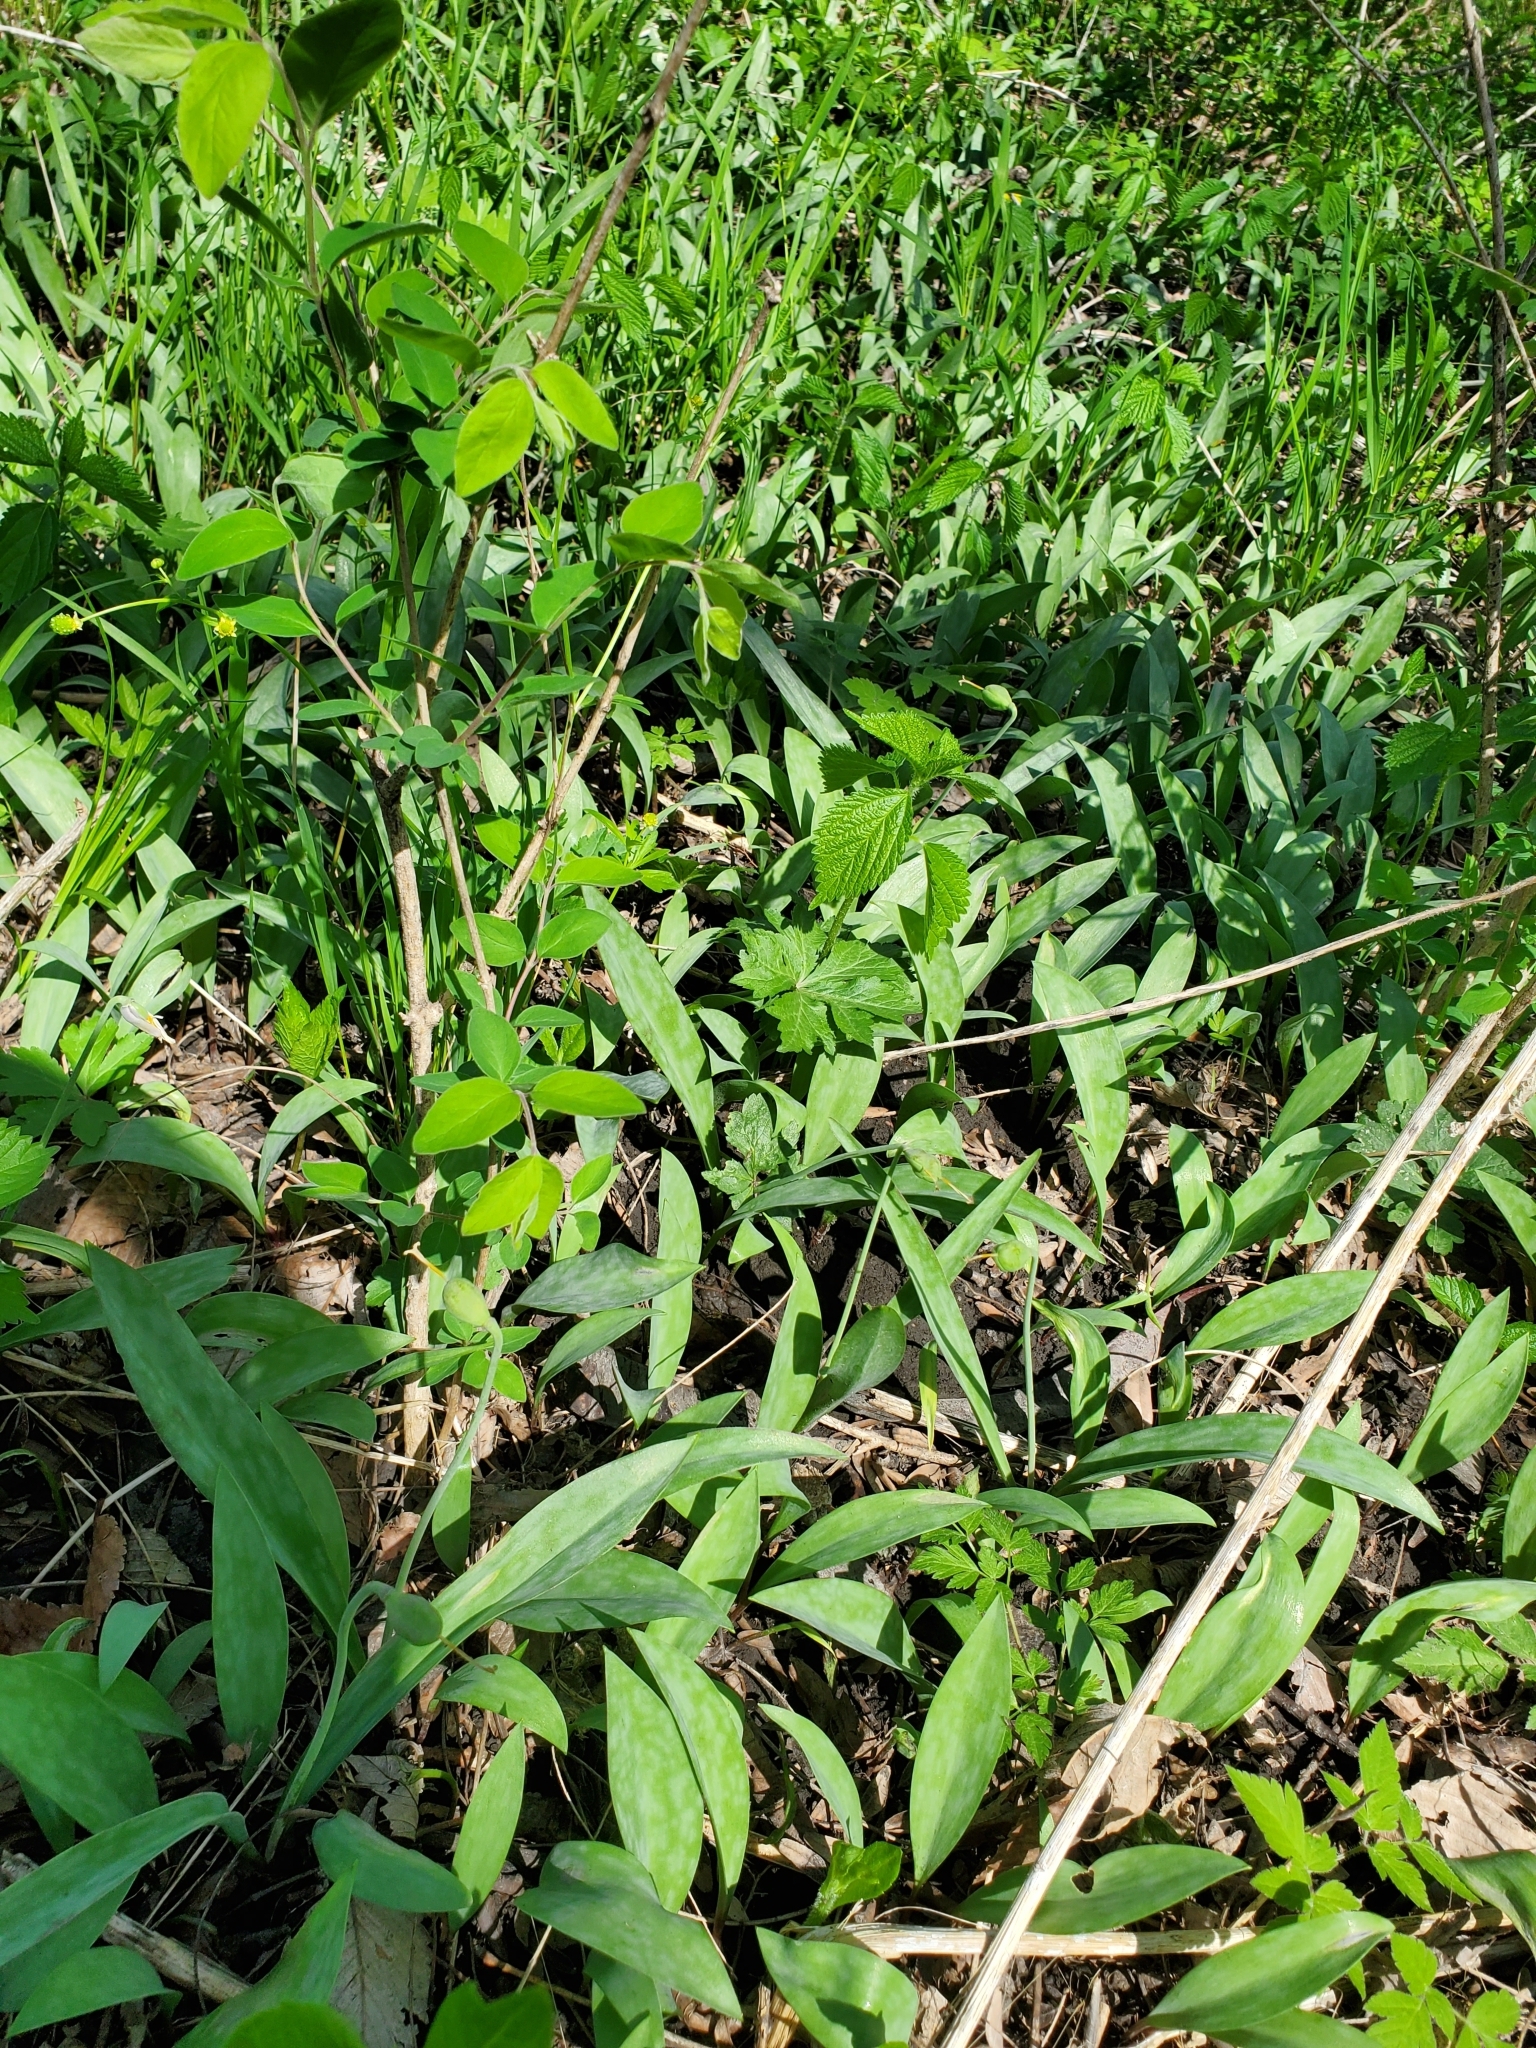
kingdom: Plantae
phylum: Tracheophyta
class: Liliopsida
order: Liliales
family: Liliaceae
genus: Erythronium
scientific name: Erythronium albidum
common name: White trout-lily
